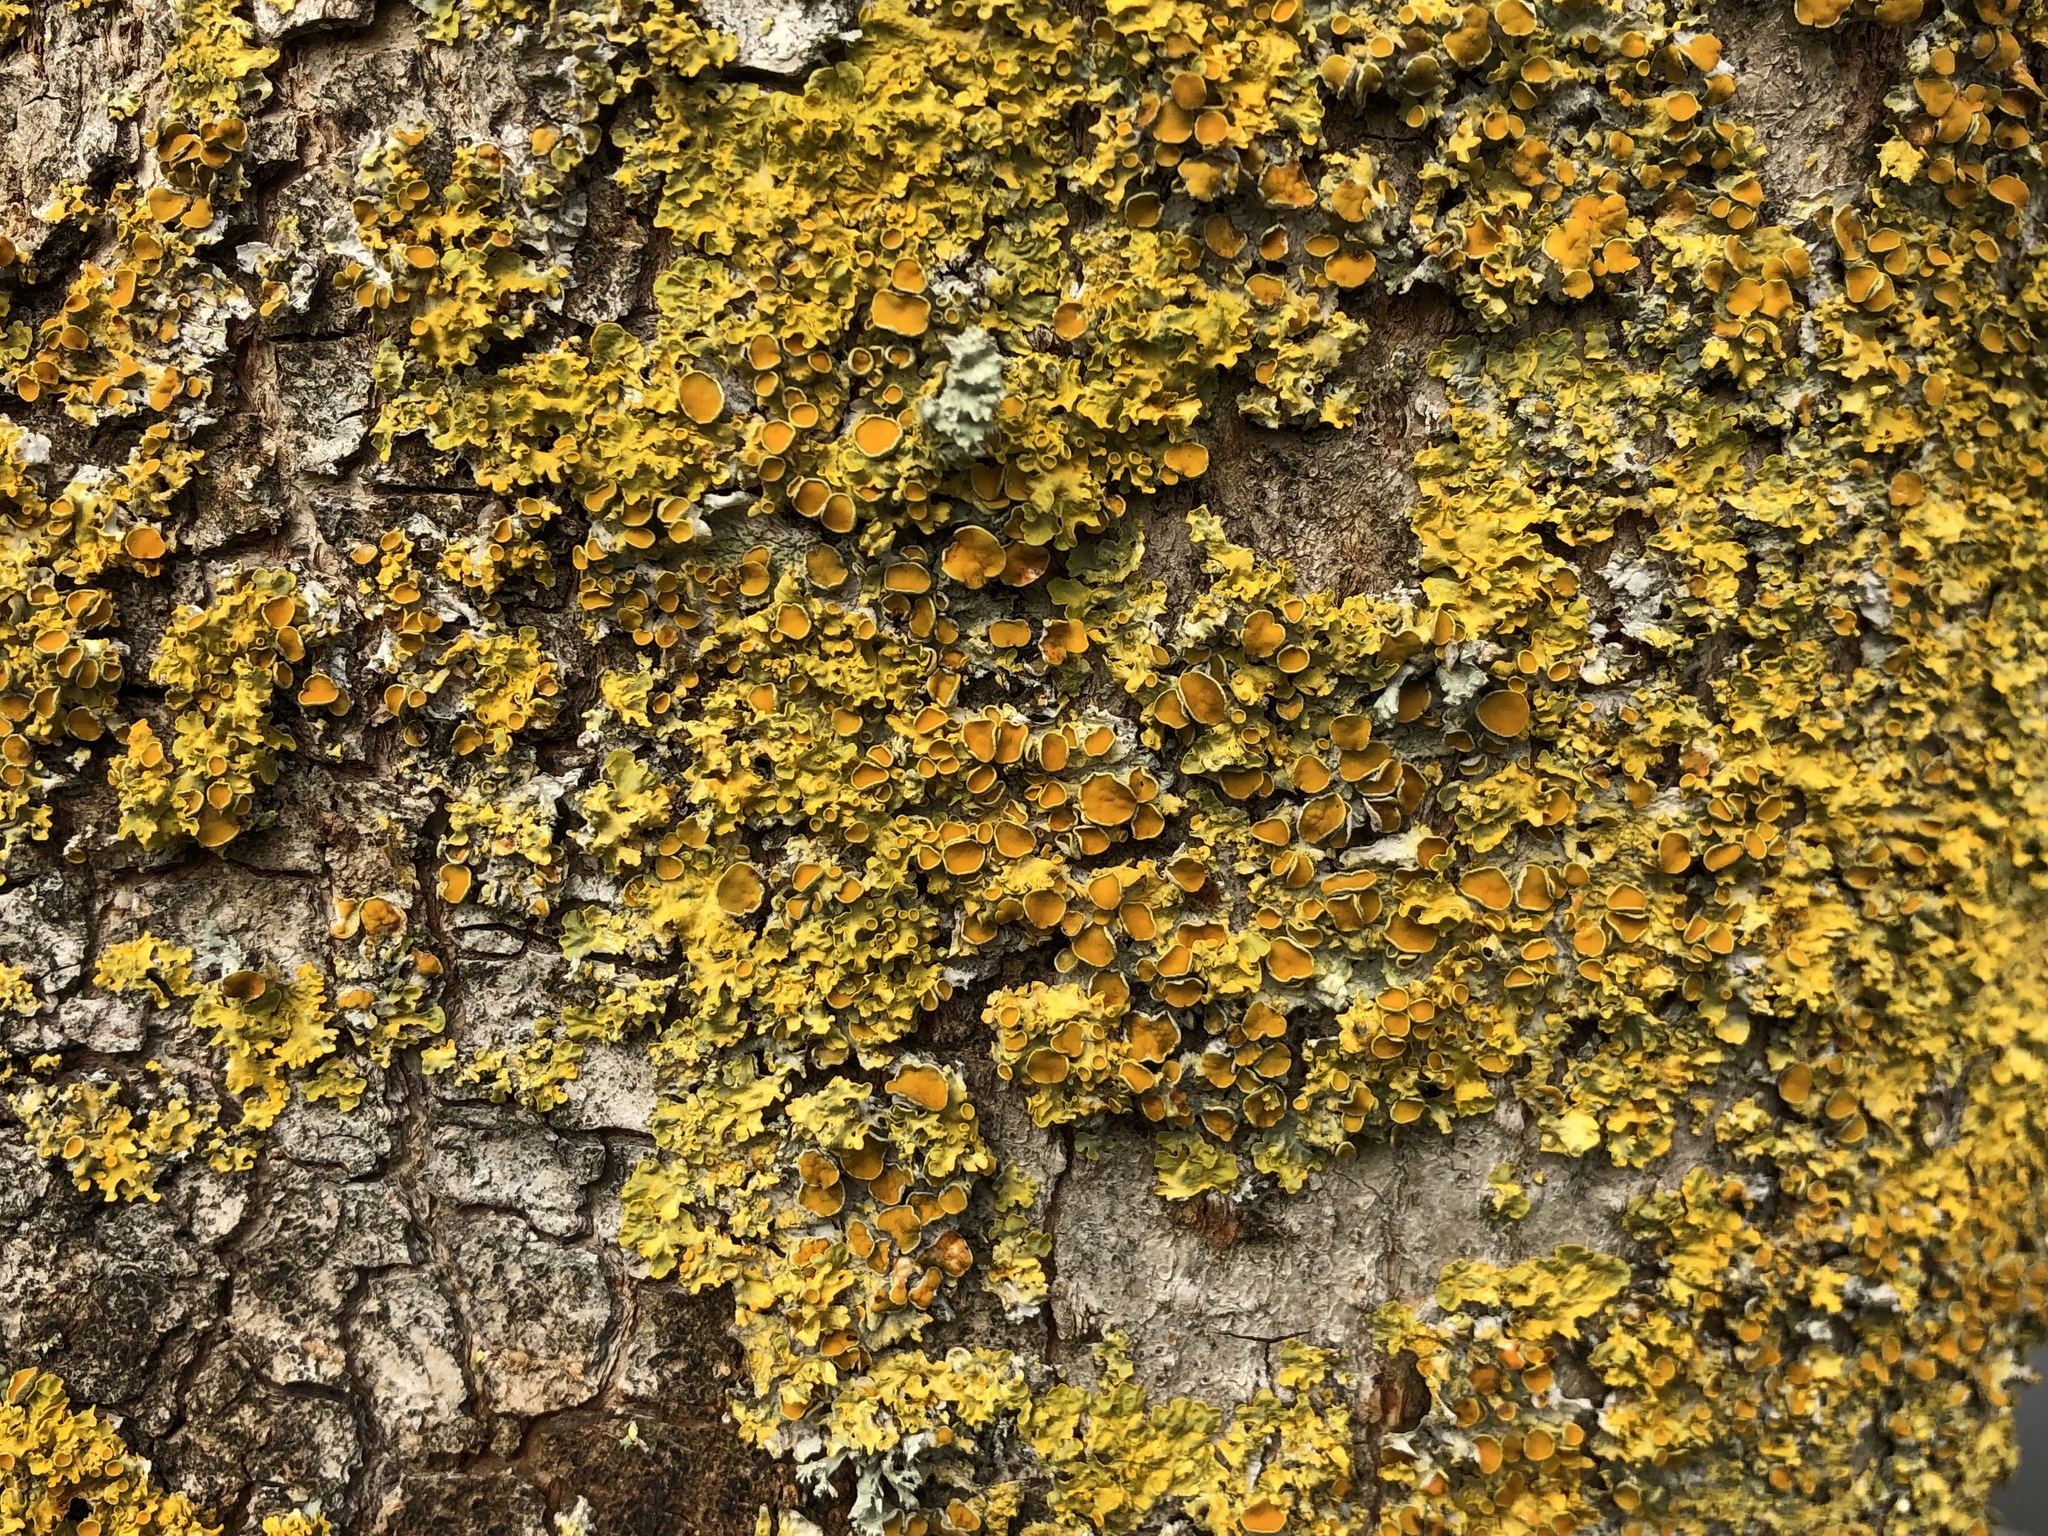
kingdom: Fungi
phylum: Ascomycota
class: Lecanoromycetes
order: Teloschistales
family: Teloschistaceae
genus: Xanthoria
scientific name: Xanthoria parietina
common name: Common orange lichen
